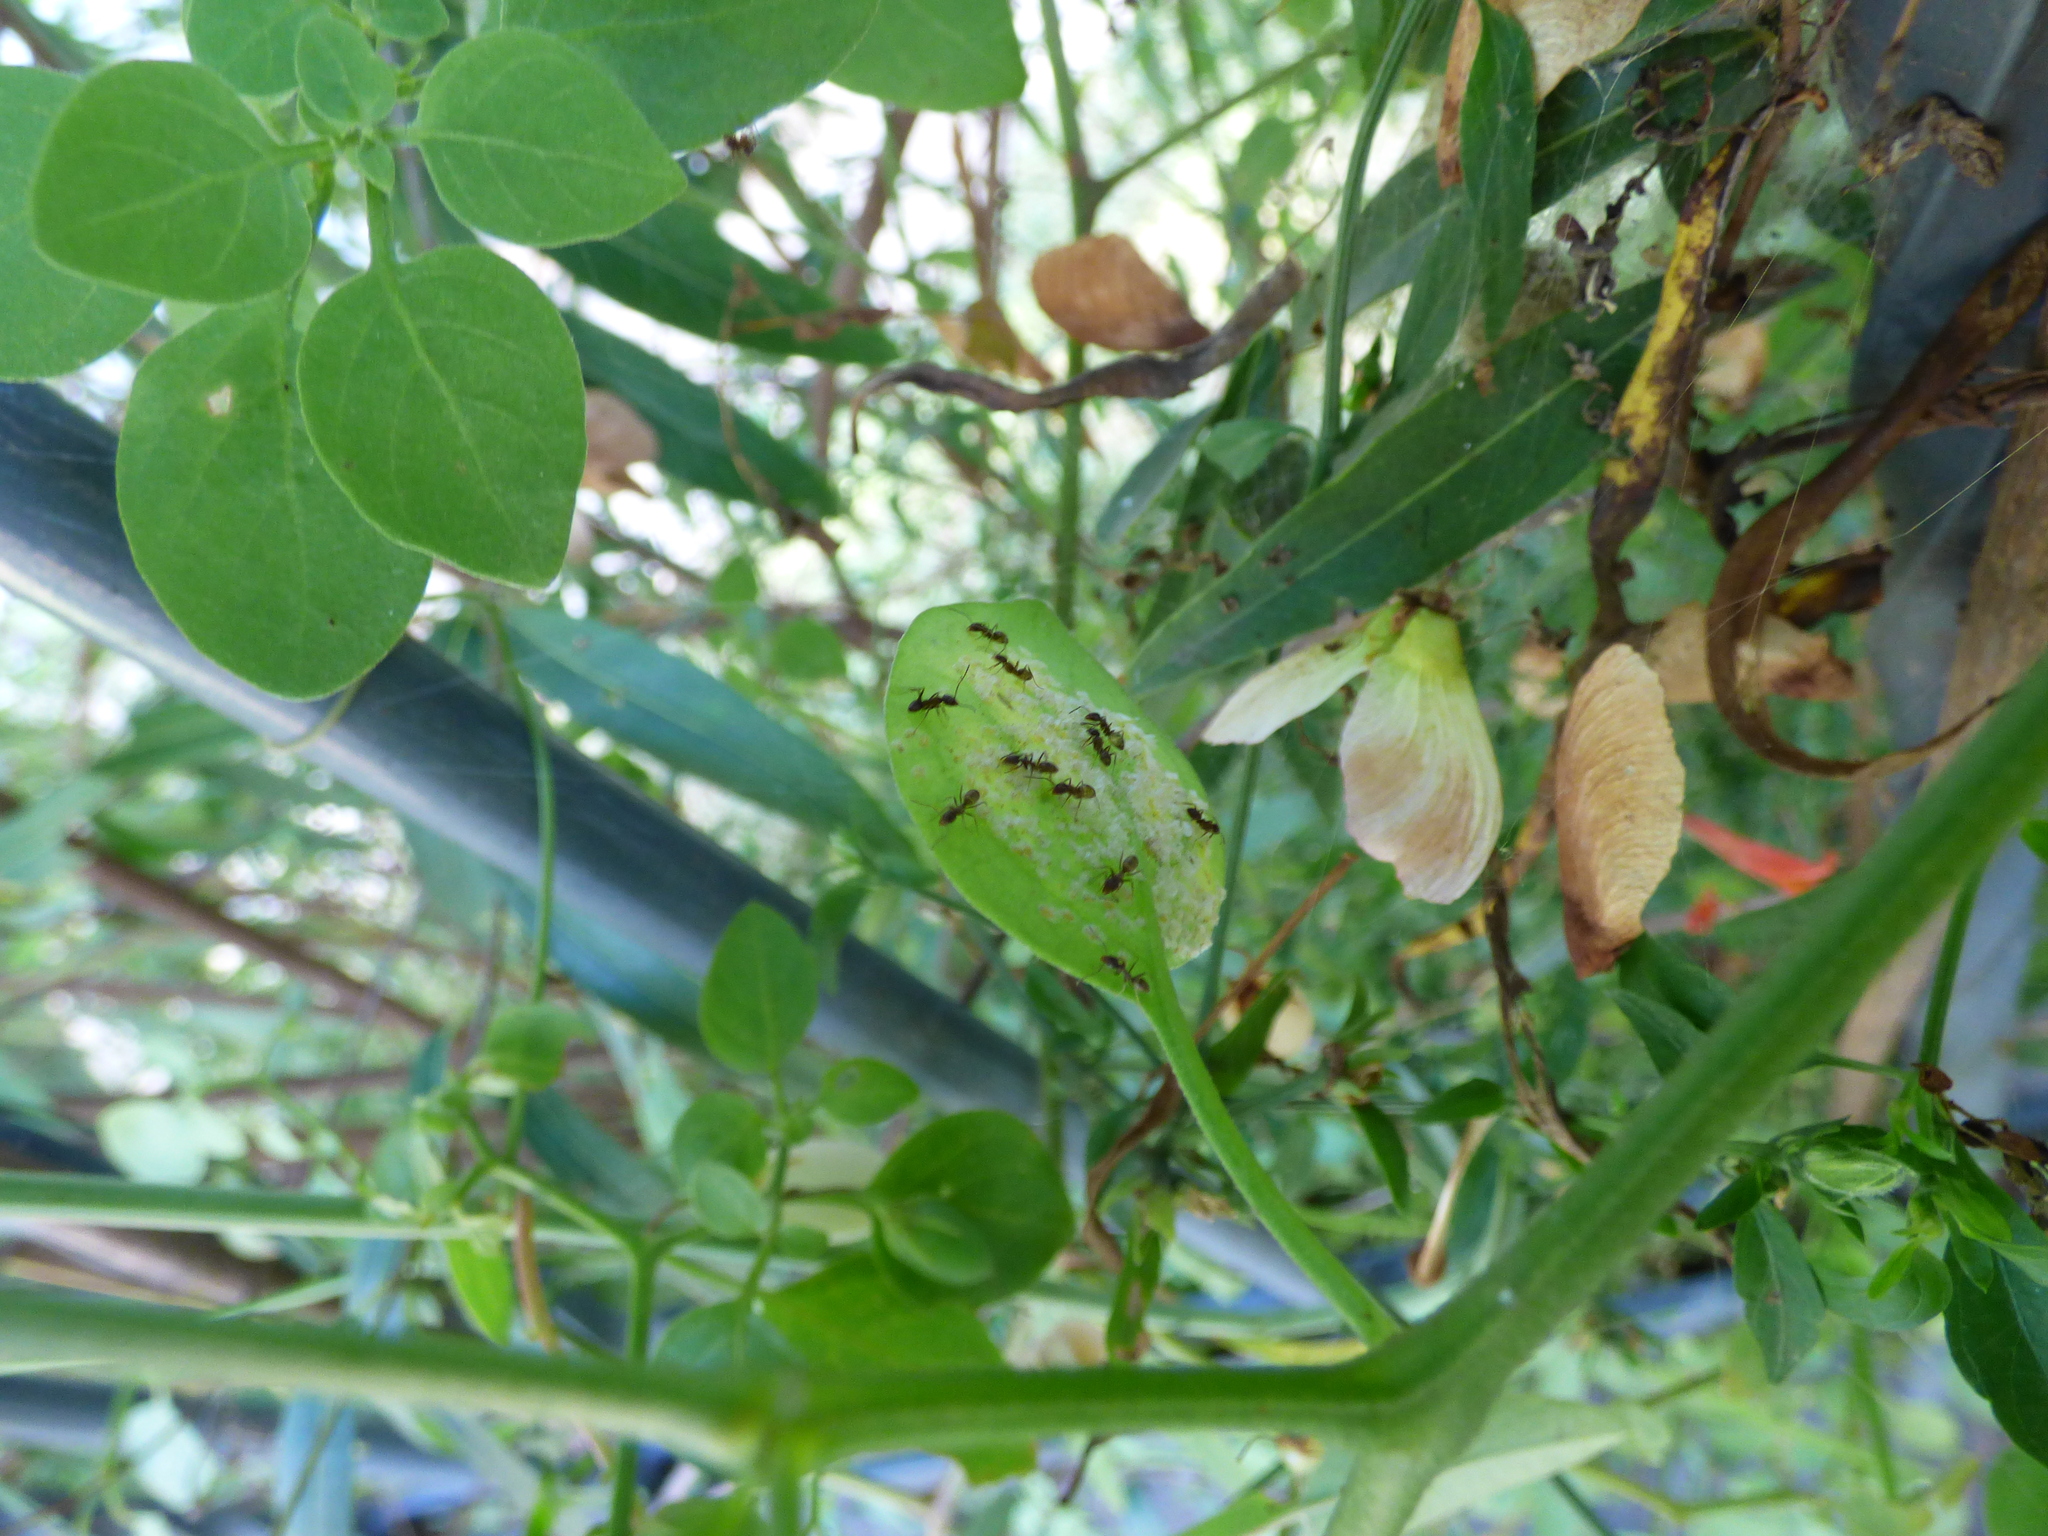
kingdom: Animalia
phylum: Arthropoda
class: Insecta
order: Hymenoptera
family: Formicidae
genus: Linepithema
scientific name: Linepithema humile
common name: Argentine ant
